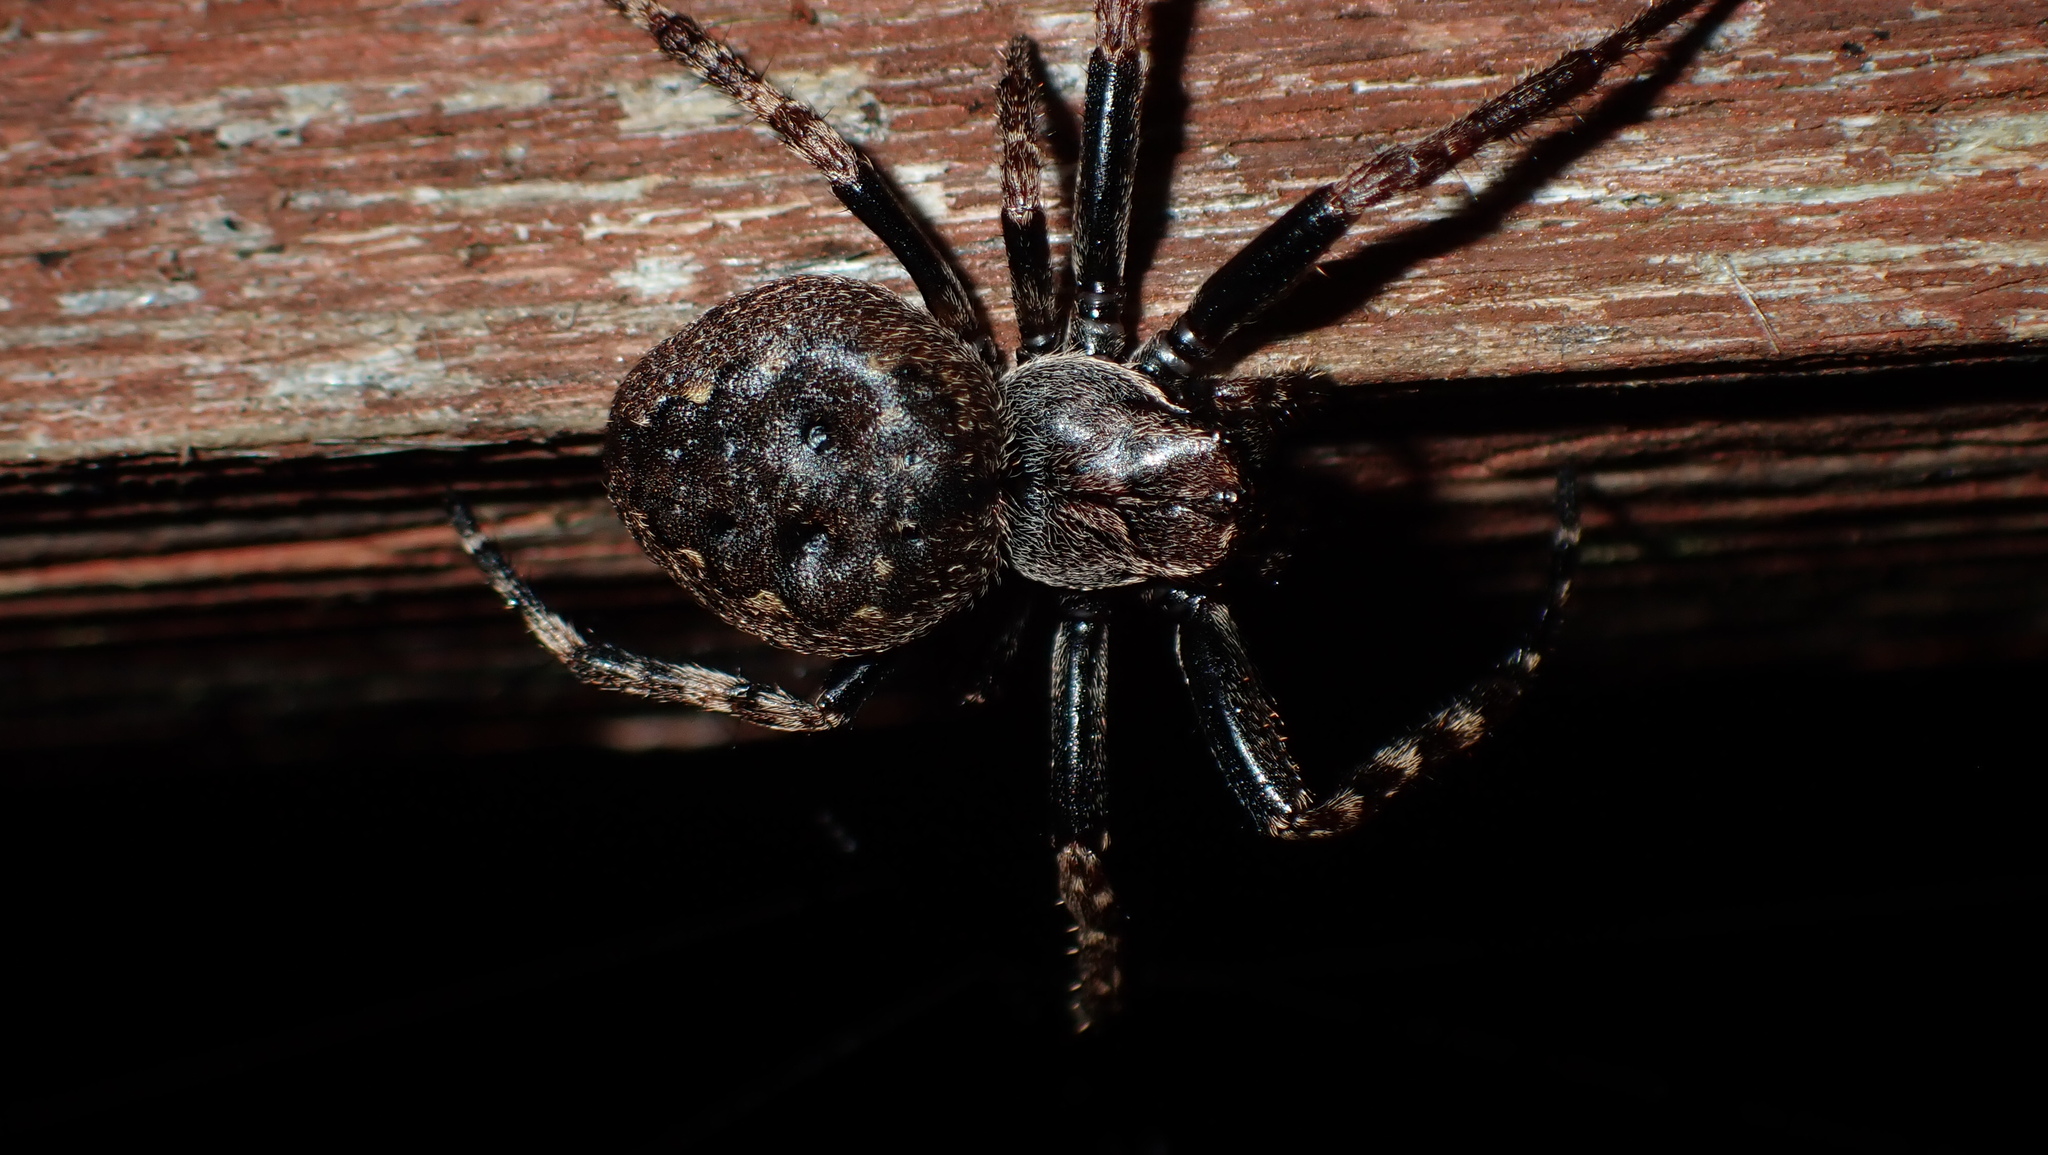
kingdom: Animalia
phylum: Arthropoda
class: Arachnida
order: Araneae
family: Araneidae
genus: Nuctenea
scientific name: Nuctenea umbratica
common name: Toad spider
